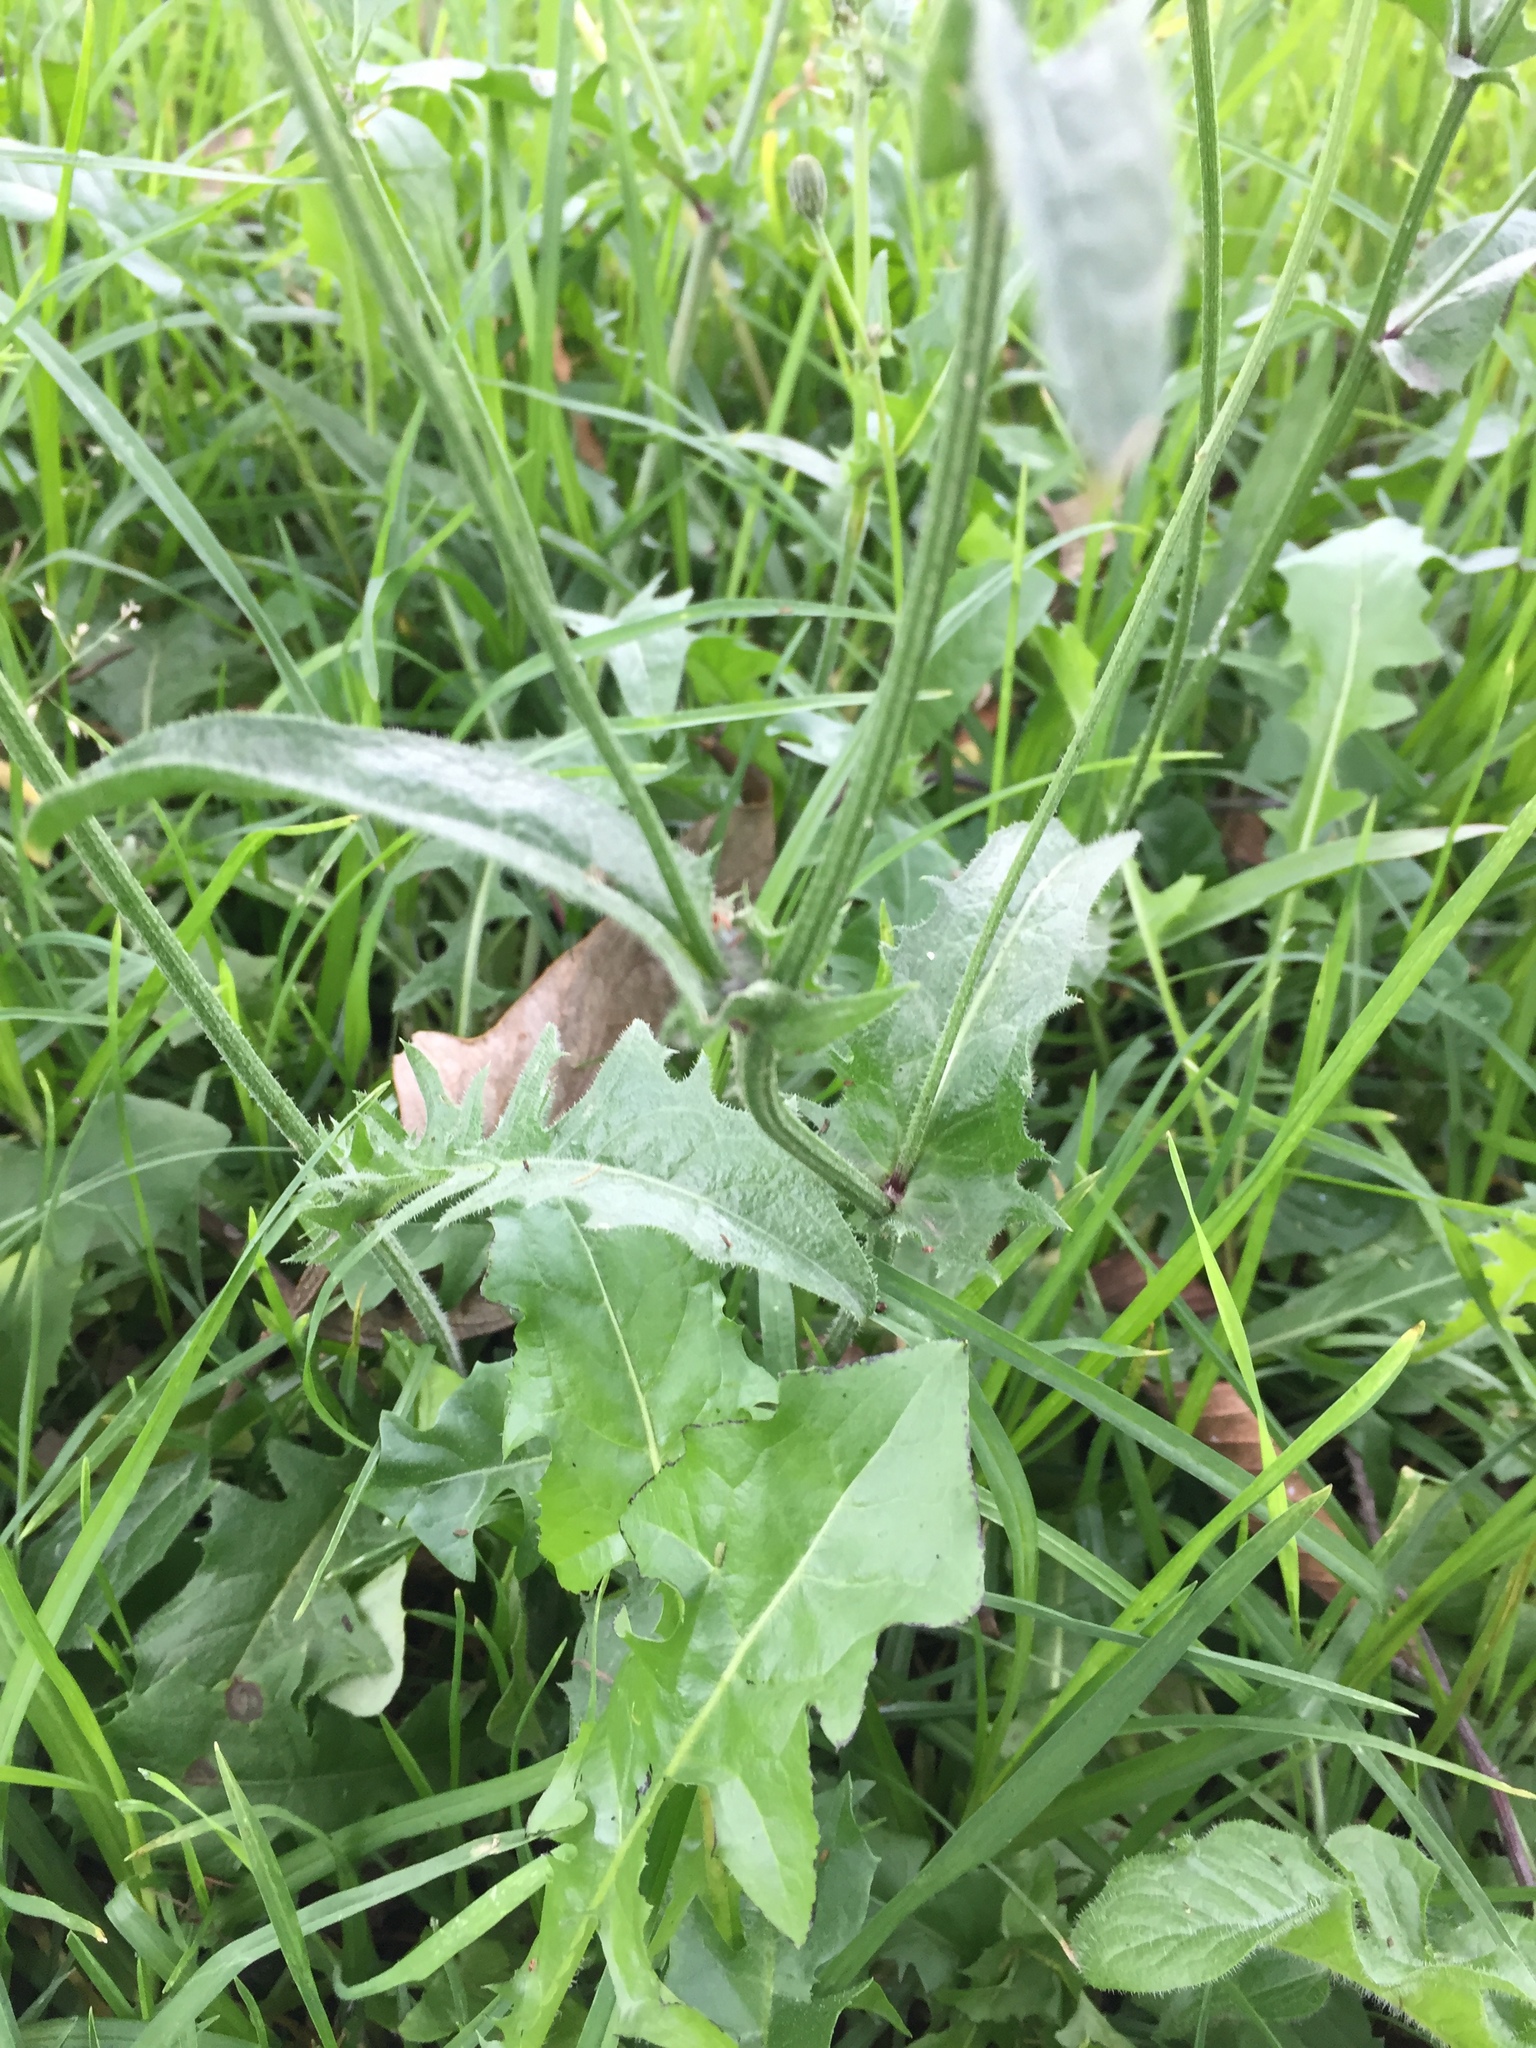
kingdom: Plantae
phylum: Tracheophyta
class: Magnoliopsida
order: Asterales
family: Asteraceae
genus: Hypochaeris
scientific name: Hypochaeris radicata
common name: Flatweed
